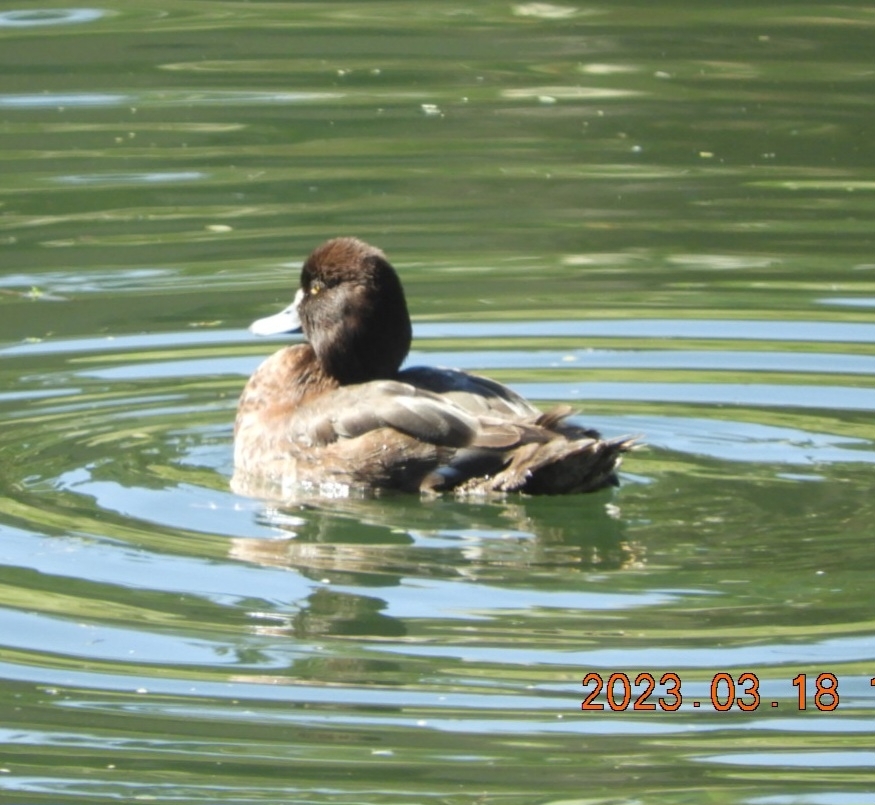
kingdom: Animalia
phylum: Chordata
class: Aves
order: Anseriformes
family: Anatidae
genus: Aythya
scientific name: Aythya affinis
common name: Lesser scaup
